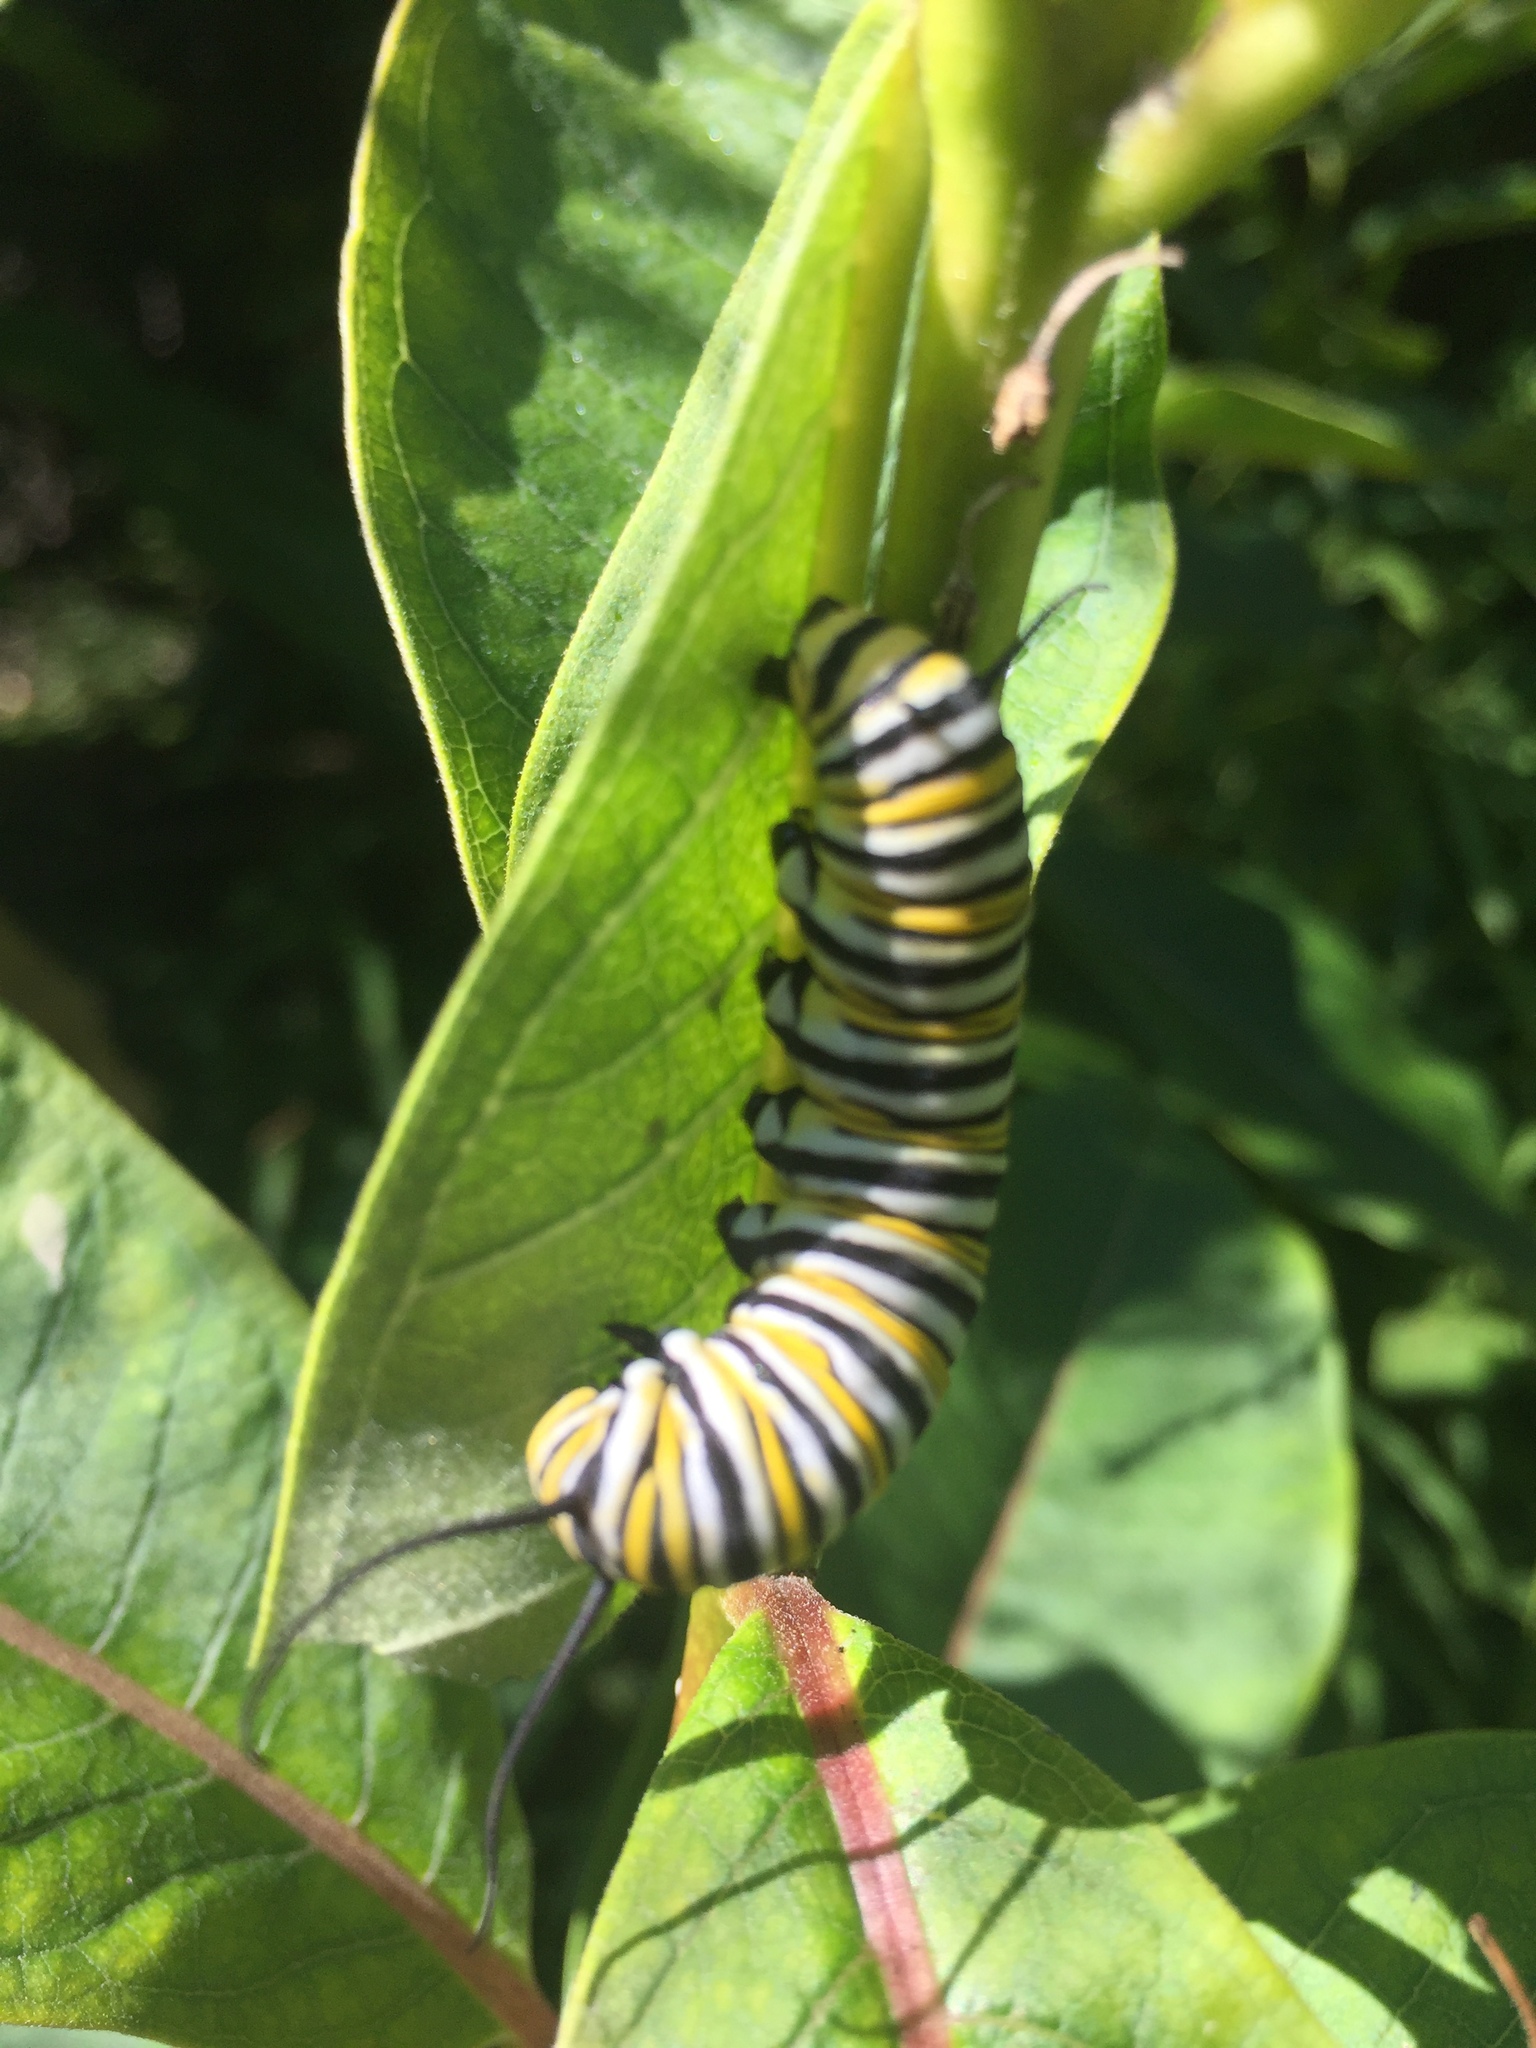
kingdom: Animalia
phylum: Arthropoda
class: Insecta
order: Lepidoptera
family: Nymphalidae
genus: Danaus
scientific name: Danaus plexippus
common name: Monarch
